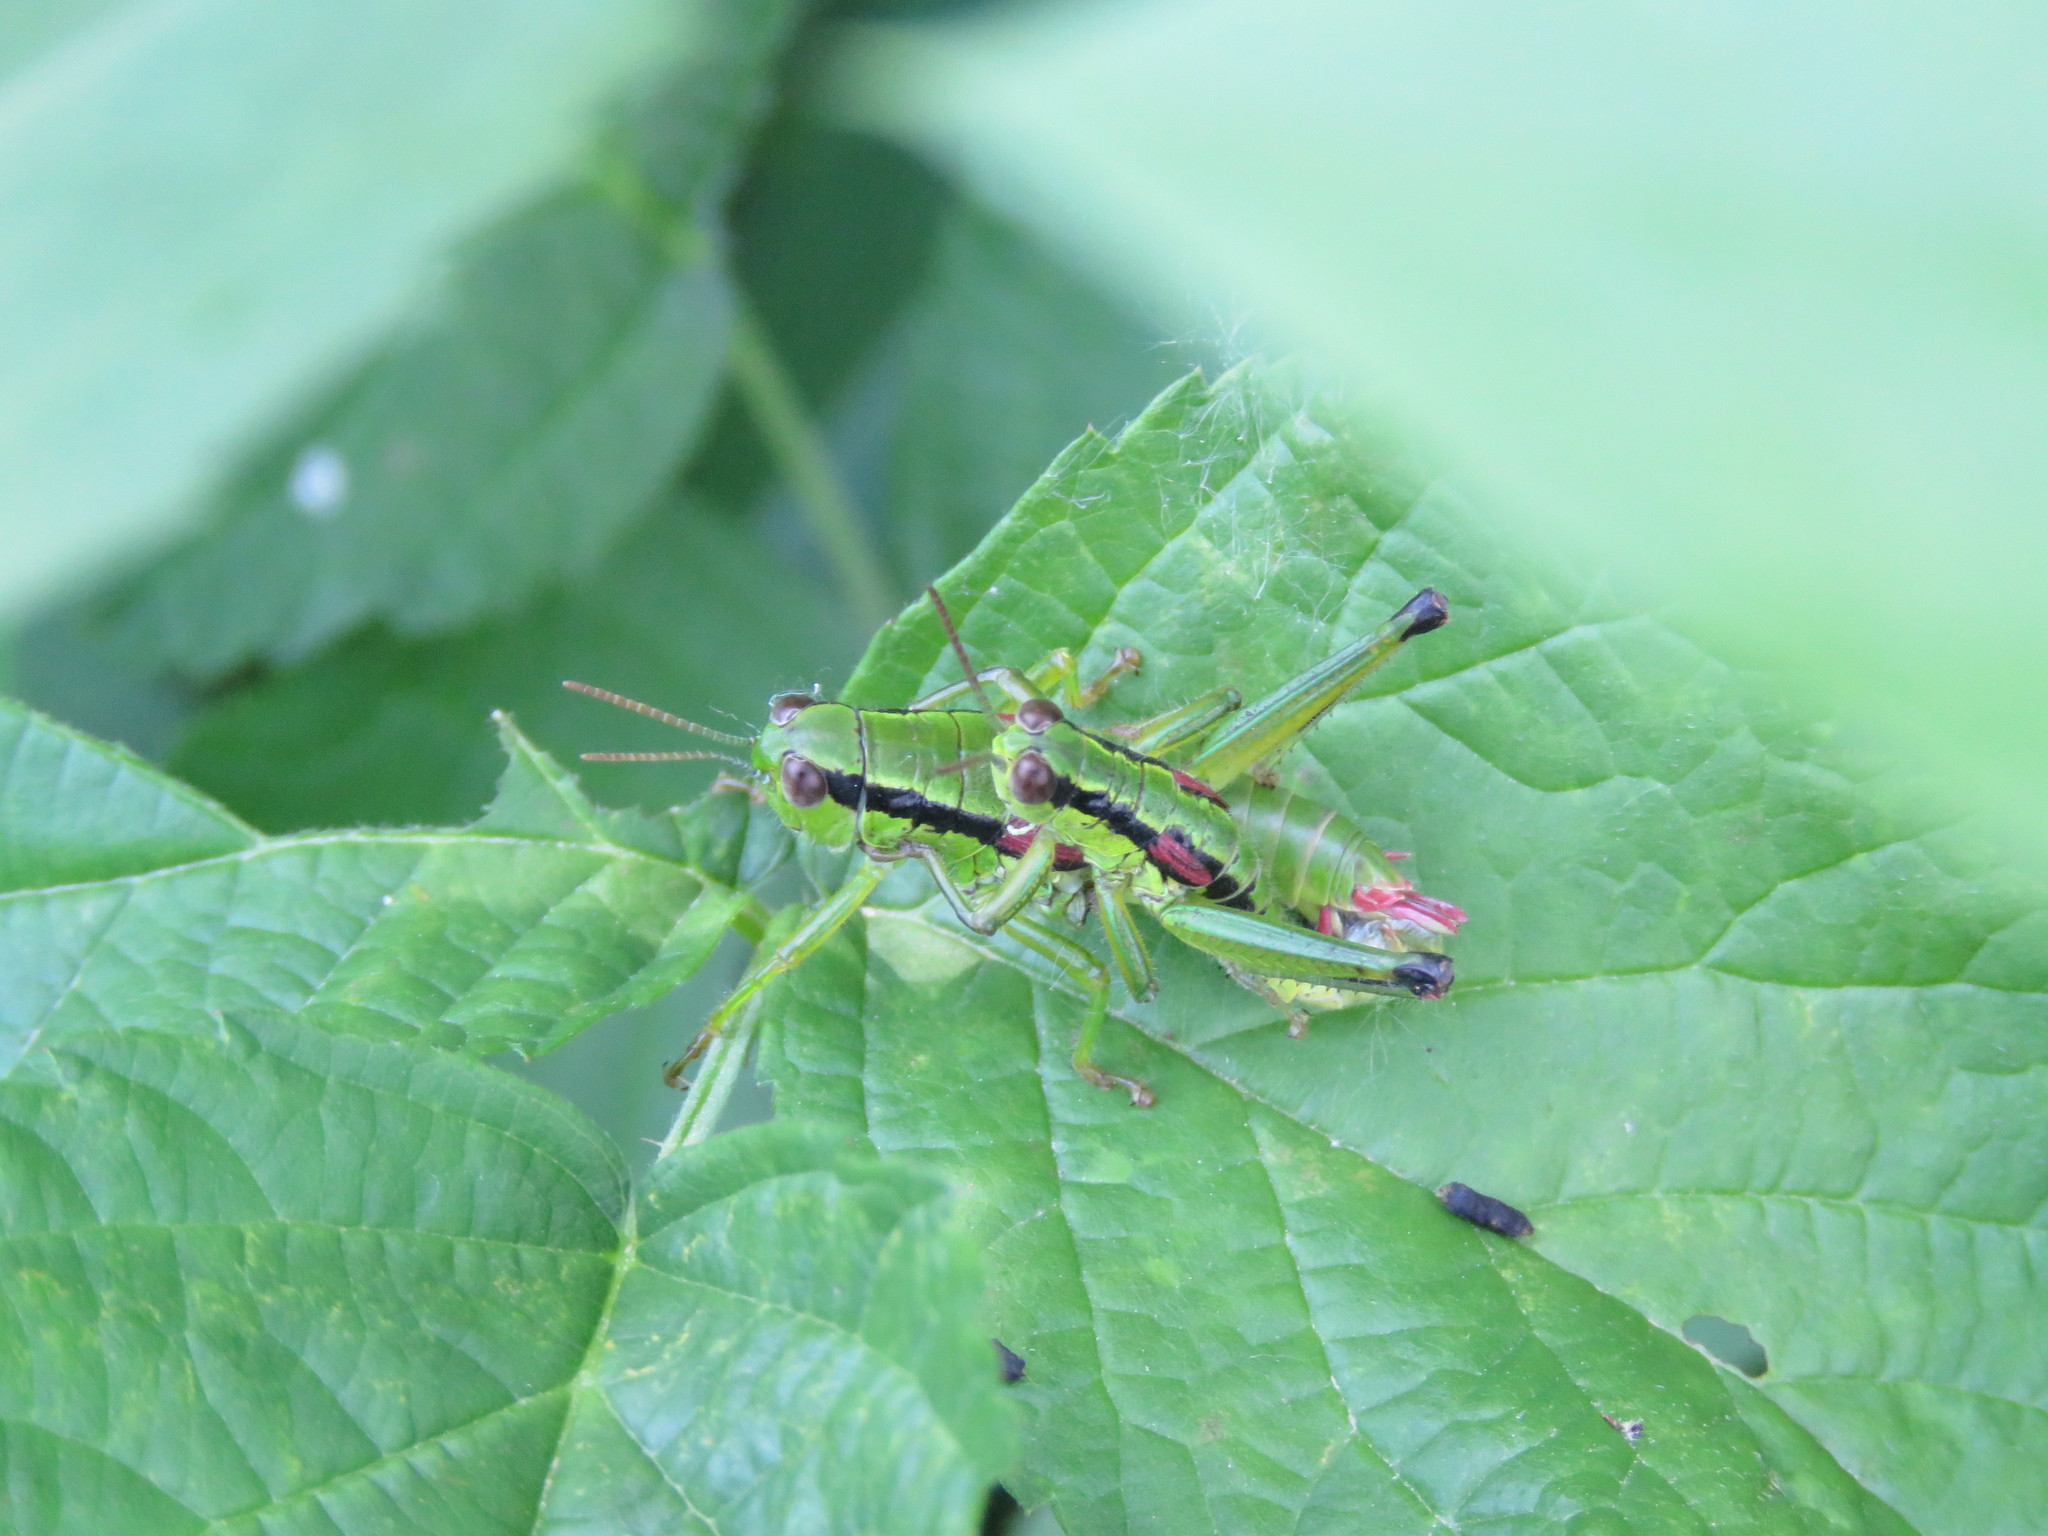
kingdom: Animalia
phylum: Arthropoda
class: Insecta
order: Orthoptera
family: Acrididae
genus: Odontopodisma
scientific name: Odontopodisma schmidtii
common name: Schmidt's mountain grasshopper
